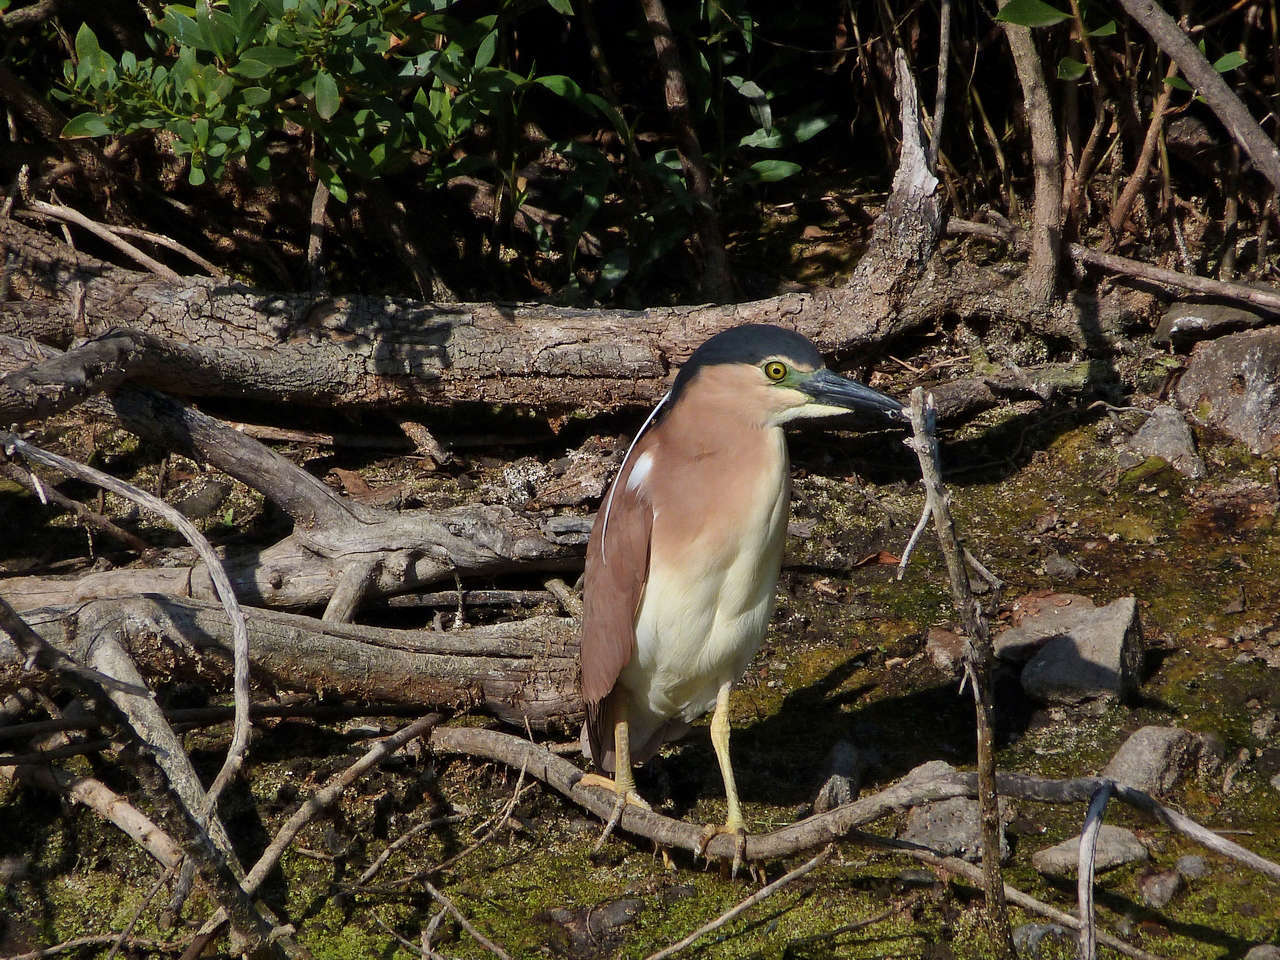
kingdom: Animalia
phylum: Chordata
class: Aves
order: Pelecaniformes
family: Ardeidae
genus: Nycticorax
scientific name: Nycticorax caledonicus
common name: Rufous night-heron
